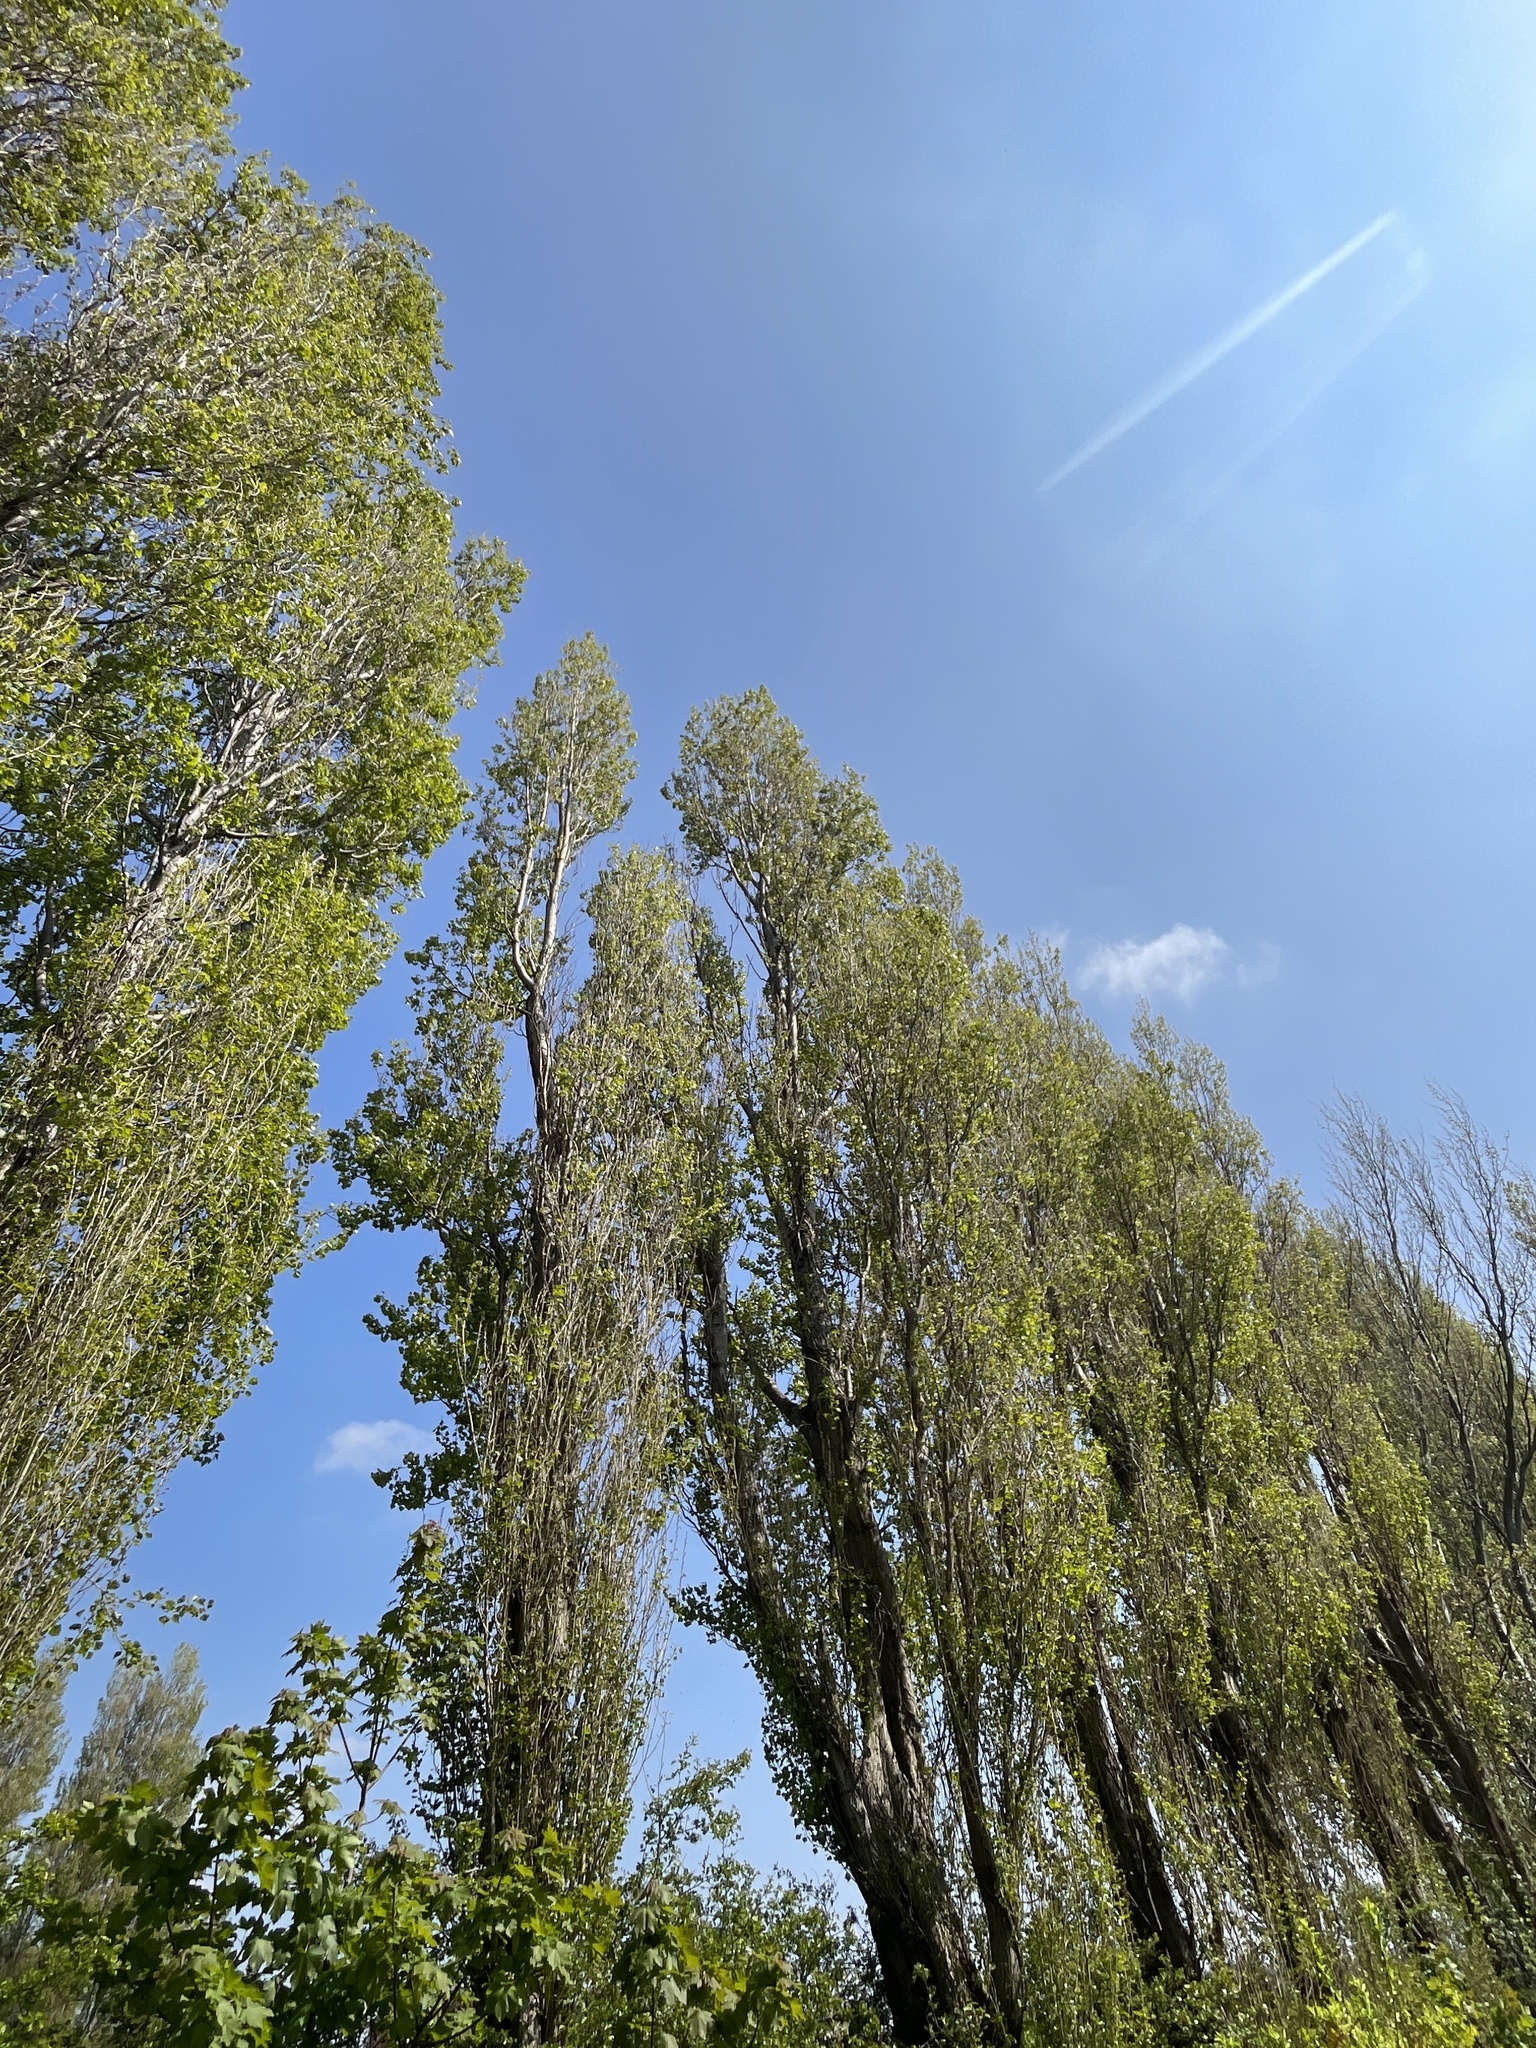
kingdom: Plantae
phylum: Tracheophyta
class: Magnoliopsida
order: Malpighiales
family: Salicaceae
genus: Populus
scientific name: Populus nigra
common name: Black poplar
